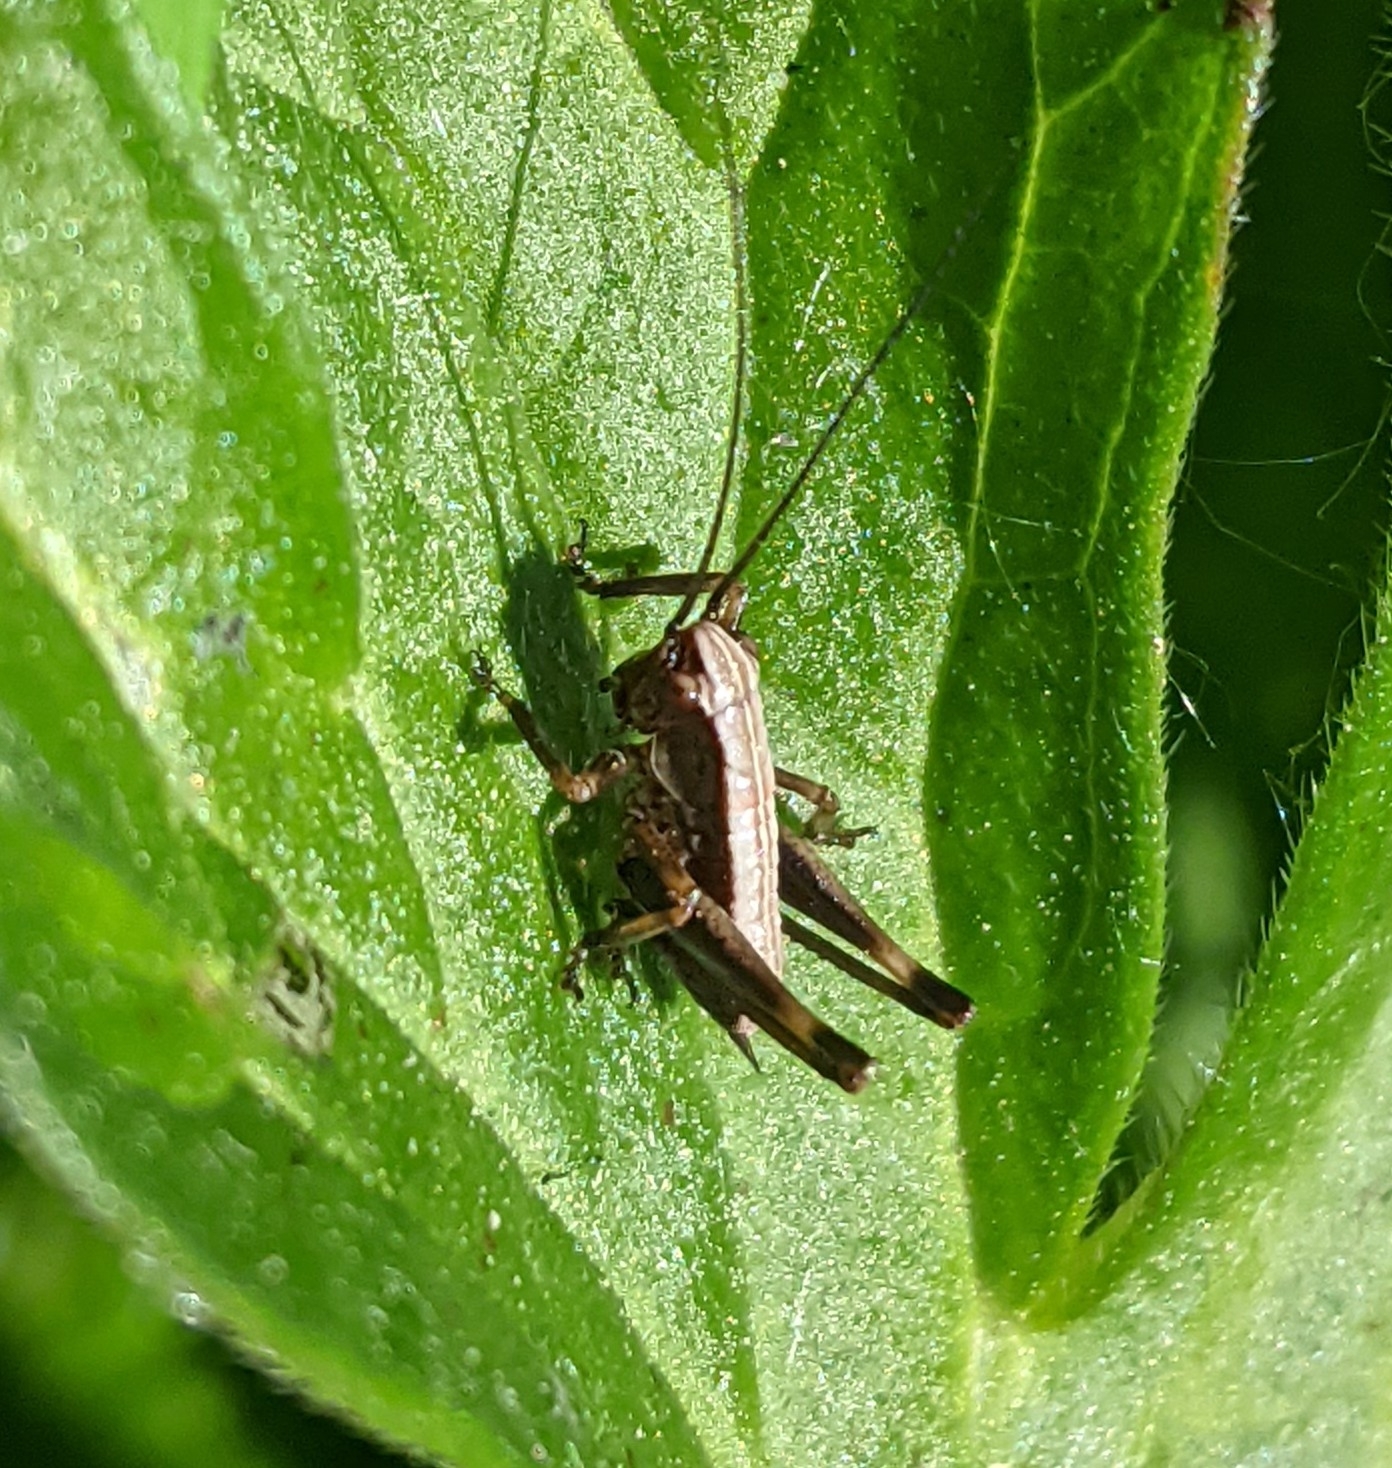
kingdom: Animalia
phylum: Arthropoda
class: Insecta
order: Orthoptera
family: Tettigoniidae
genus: Pholidoptera
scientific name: Pholidoptera griseoaptera
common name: Dark bush-cricket
